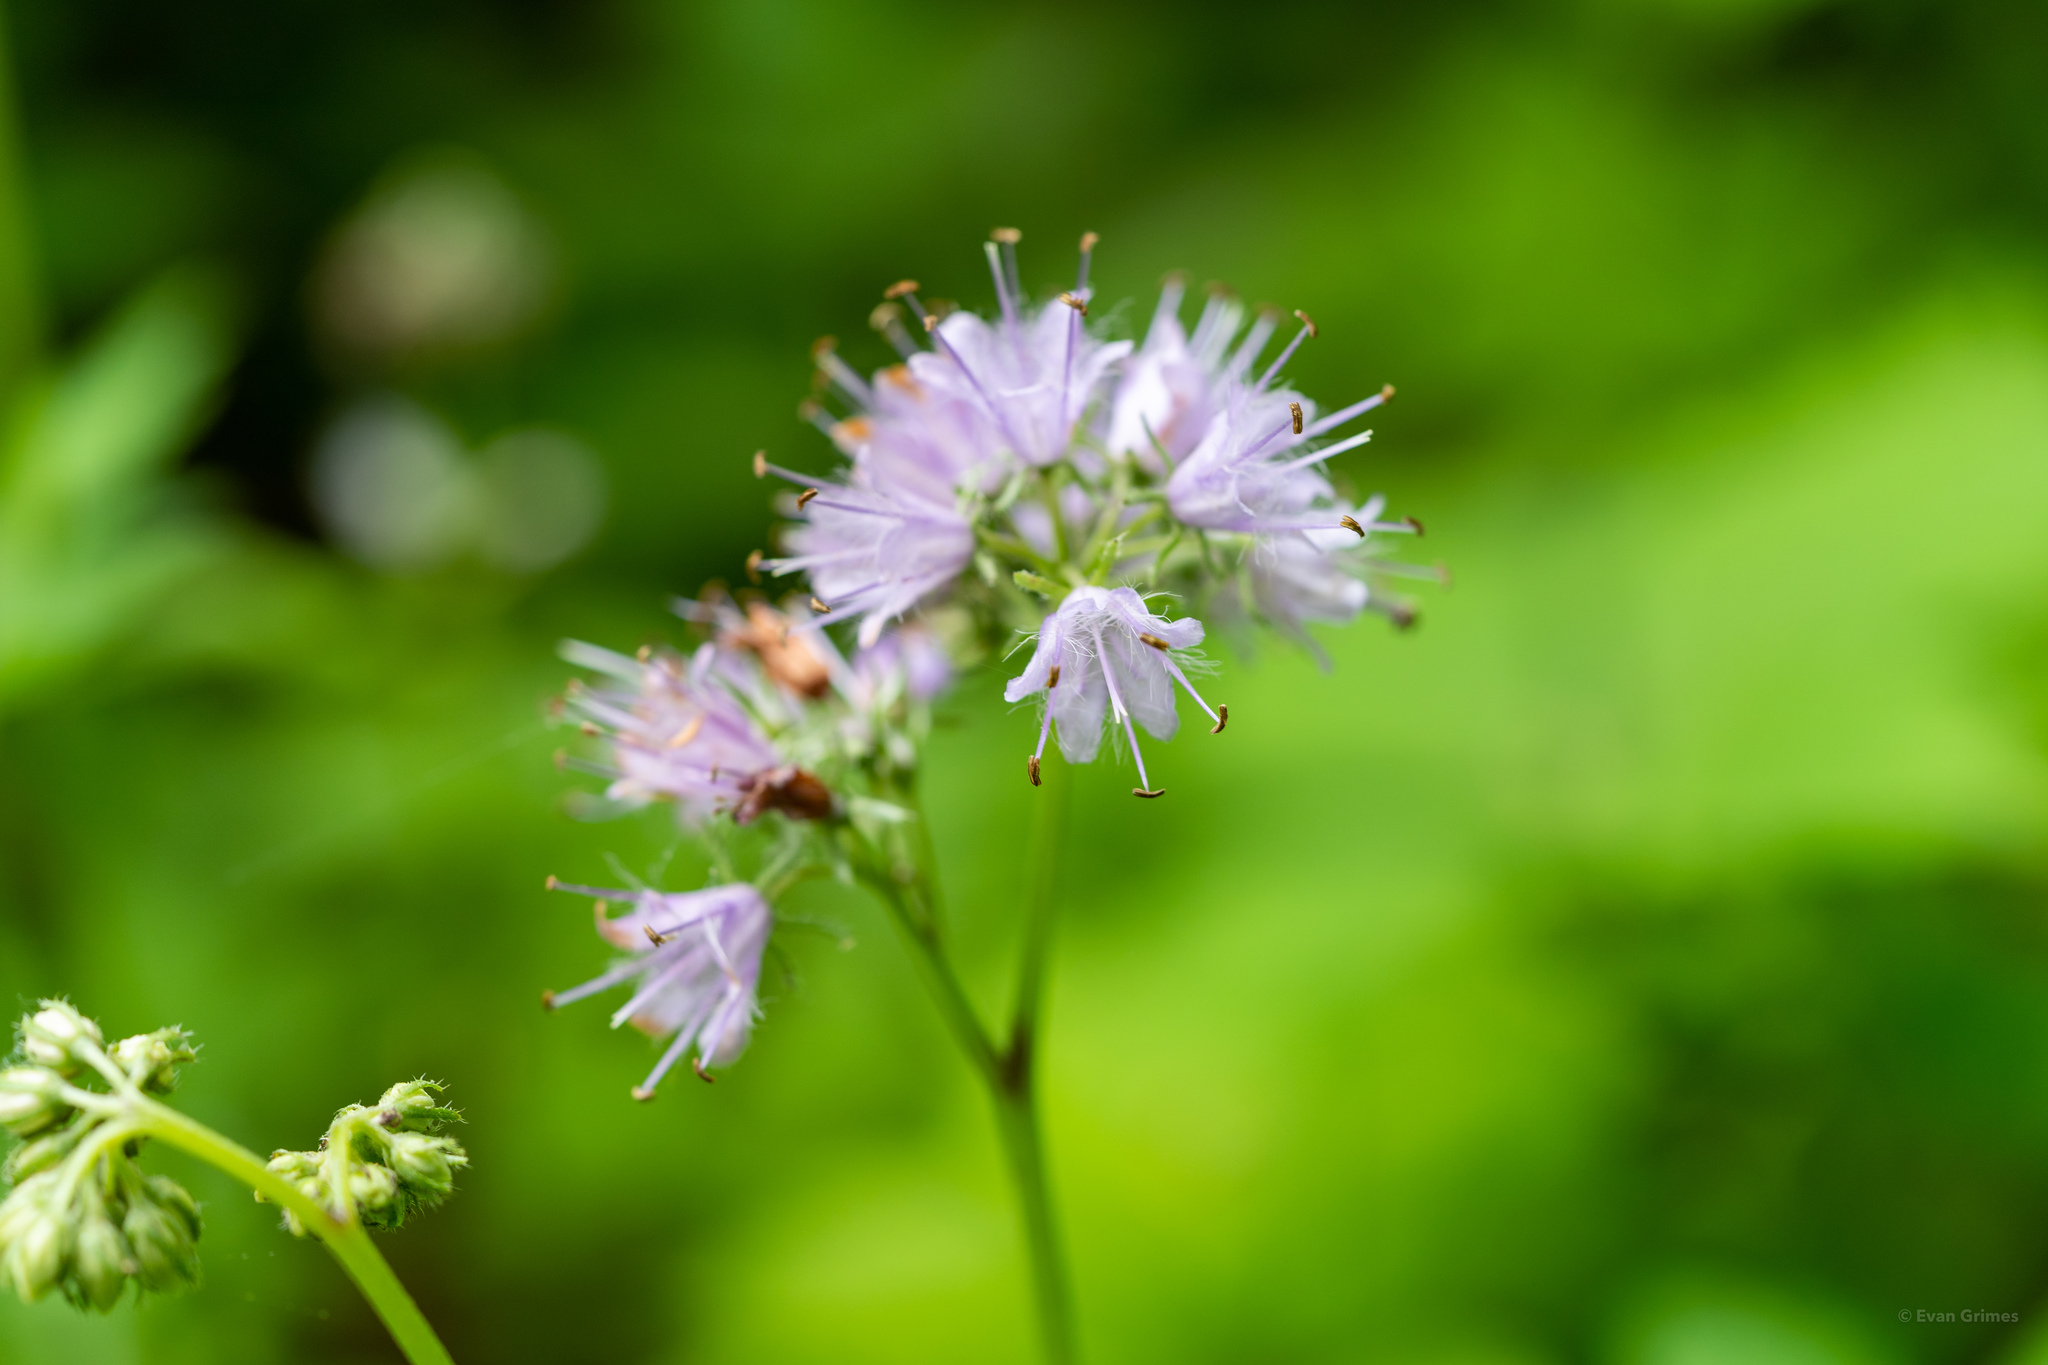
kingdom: Plantae
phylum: Tracheophyta
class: Magnoliopsida
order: Boraginales
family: Hydrophyllaceae
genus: Hydrophyllum
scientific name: Hydrophyllum virginianum
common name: Virginia waterleaf
